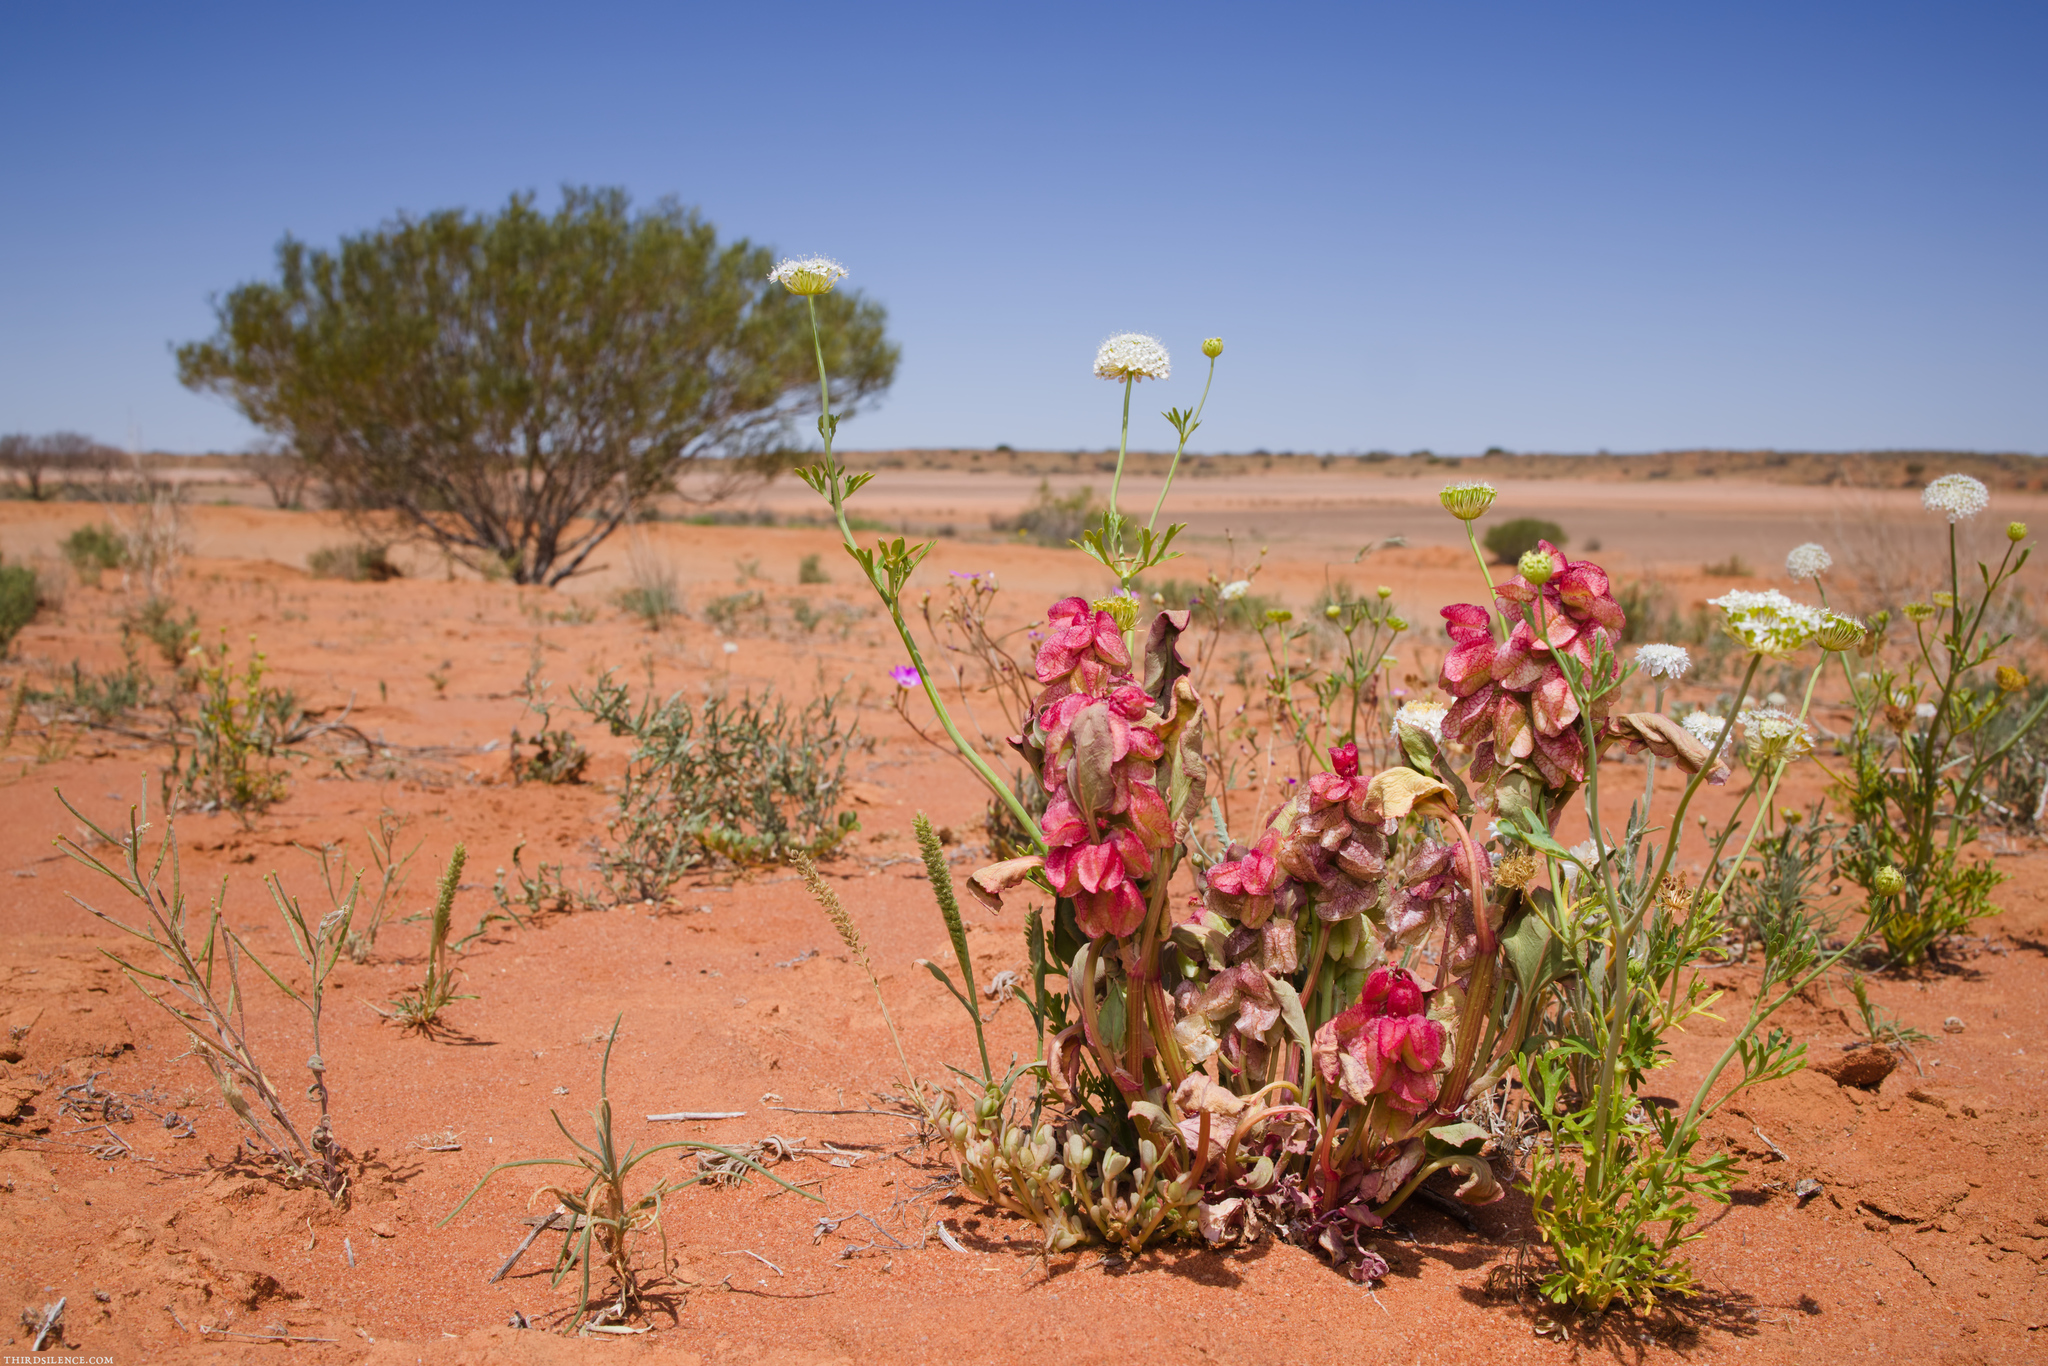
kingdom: Plantae
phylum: Tracheophyta
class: Magnoliopsida
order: Caryophyllales
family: Polygonaceae
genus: Rumex
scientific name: Rumex vesicarius
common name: Bladder dock
